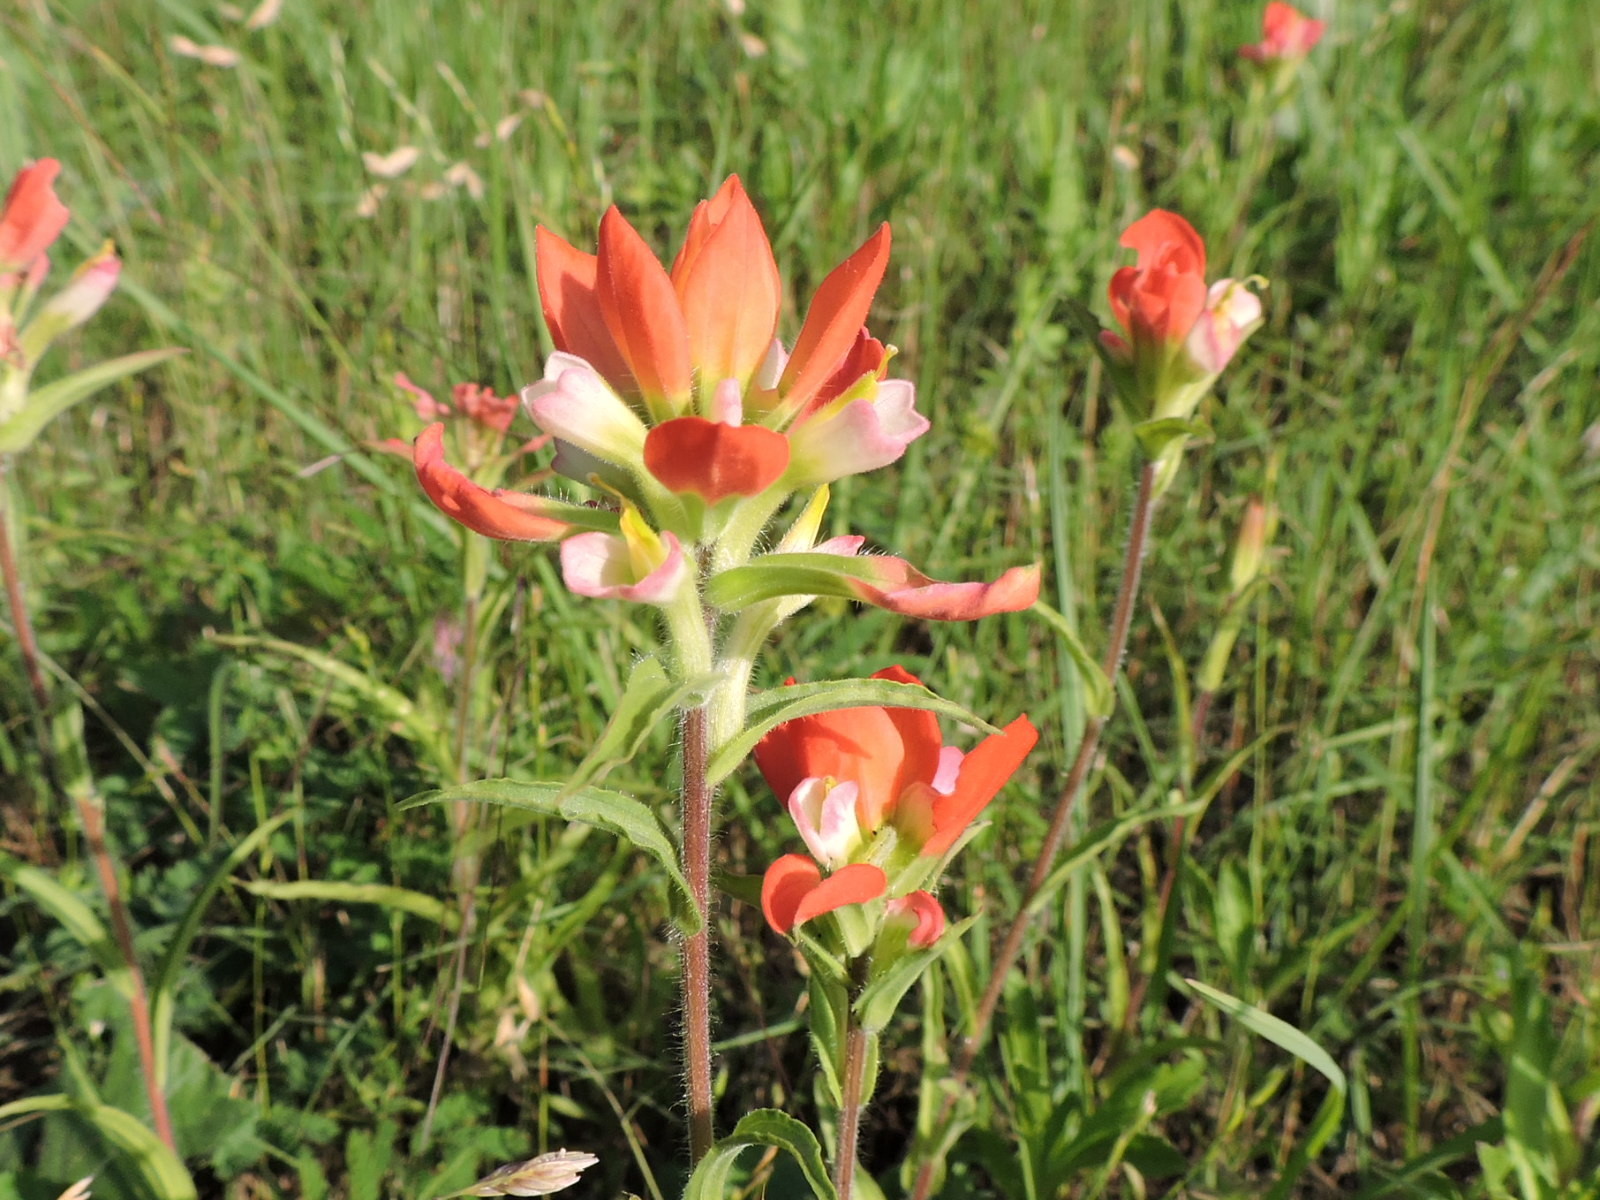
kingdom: Plantae
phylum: Tracheophyta
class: Magnoliopsida
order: Lamiales
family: Orobanchaceae
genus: Castilleja
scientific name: Castilleja indivisa
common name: Texas paintbrush
